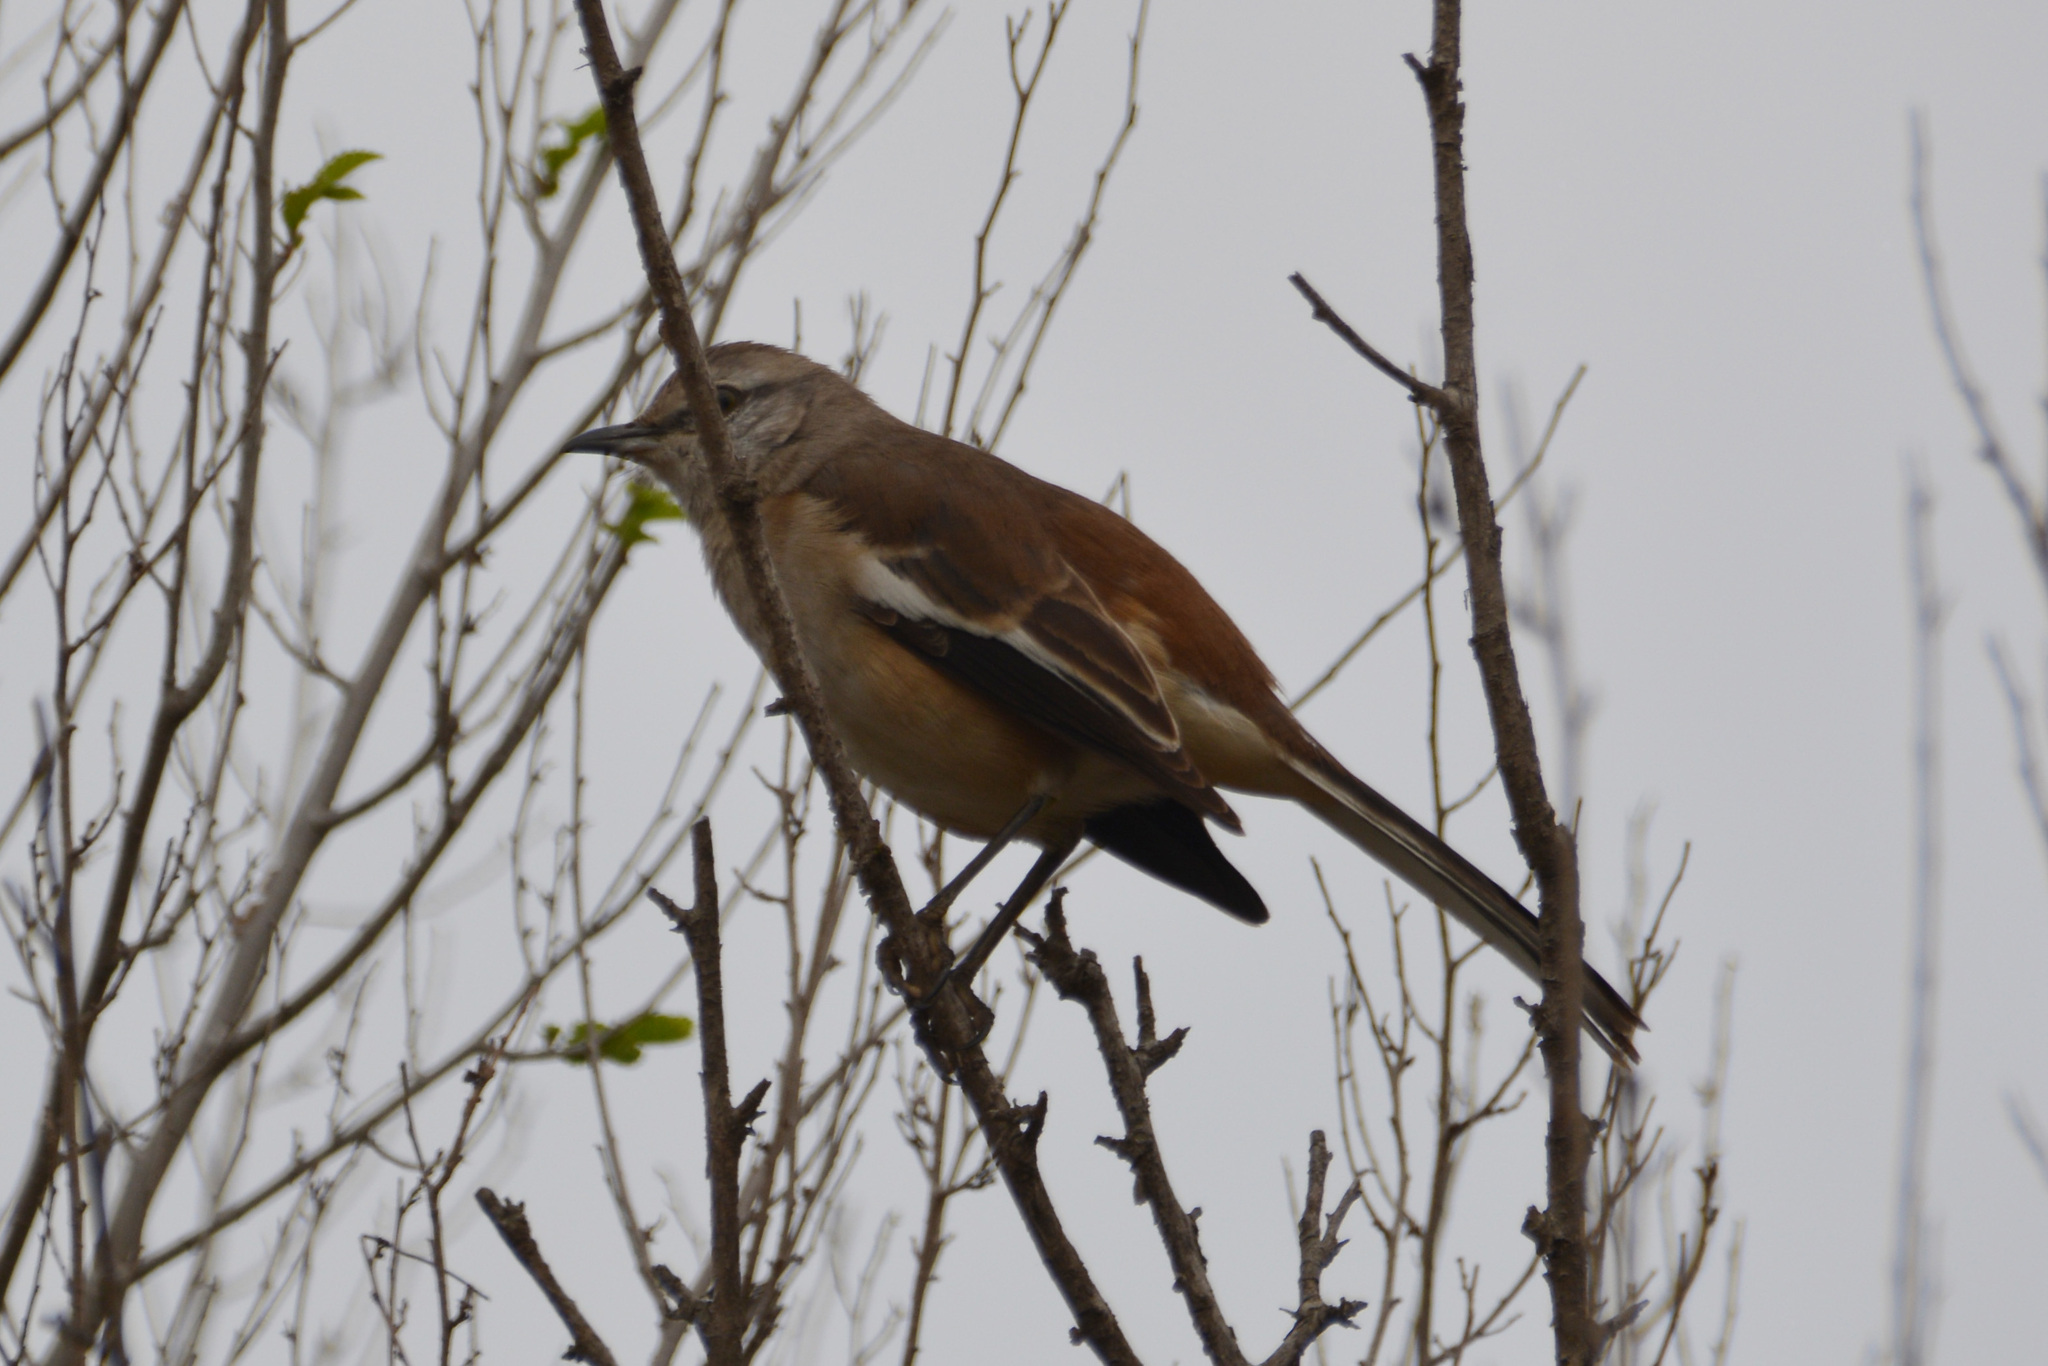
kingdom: Animalia
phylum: Chordata
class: Aves
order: Passeriformes
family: Mimidae
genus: Mimus
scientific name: Mimus triurus
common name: White-banded mockingbird
